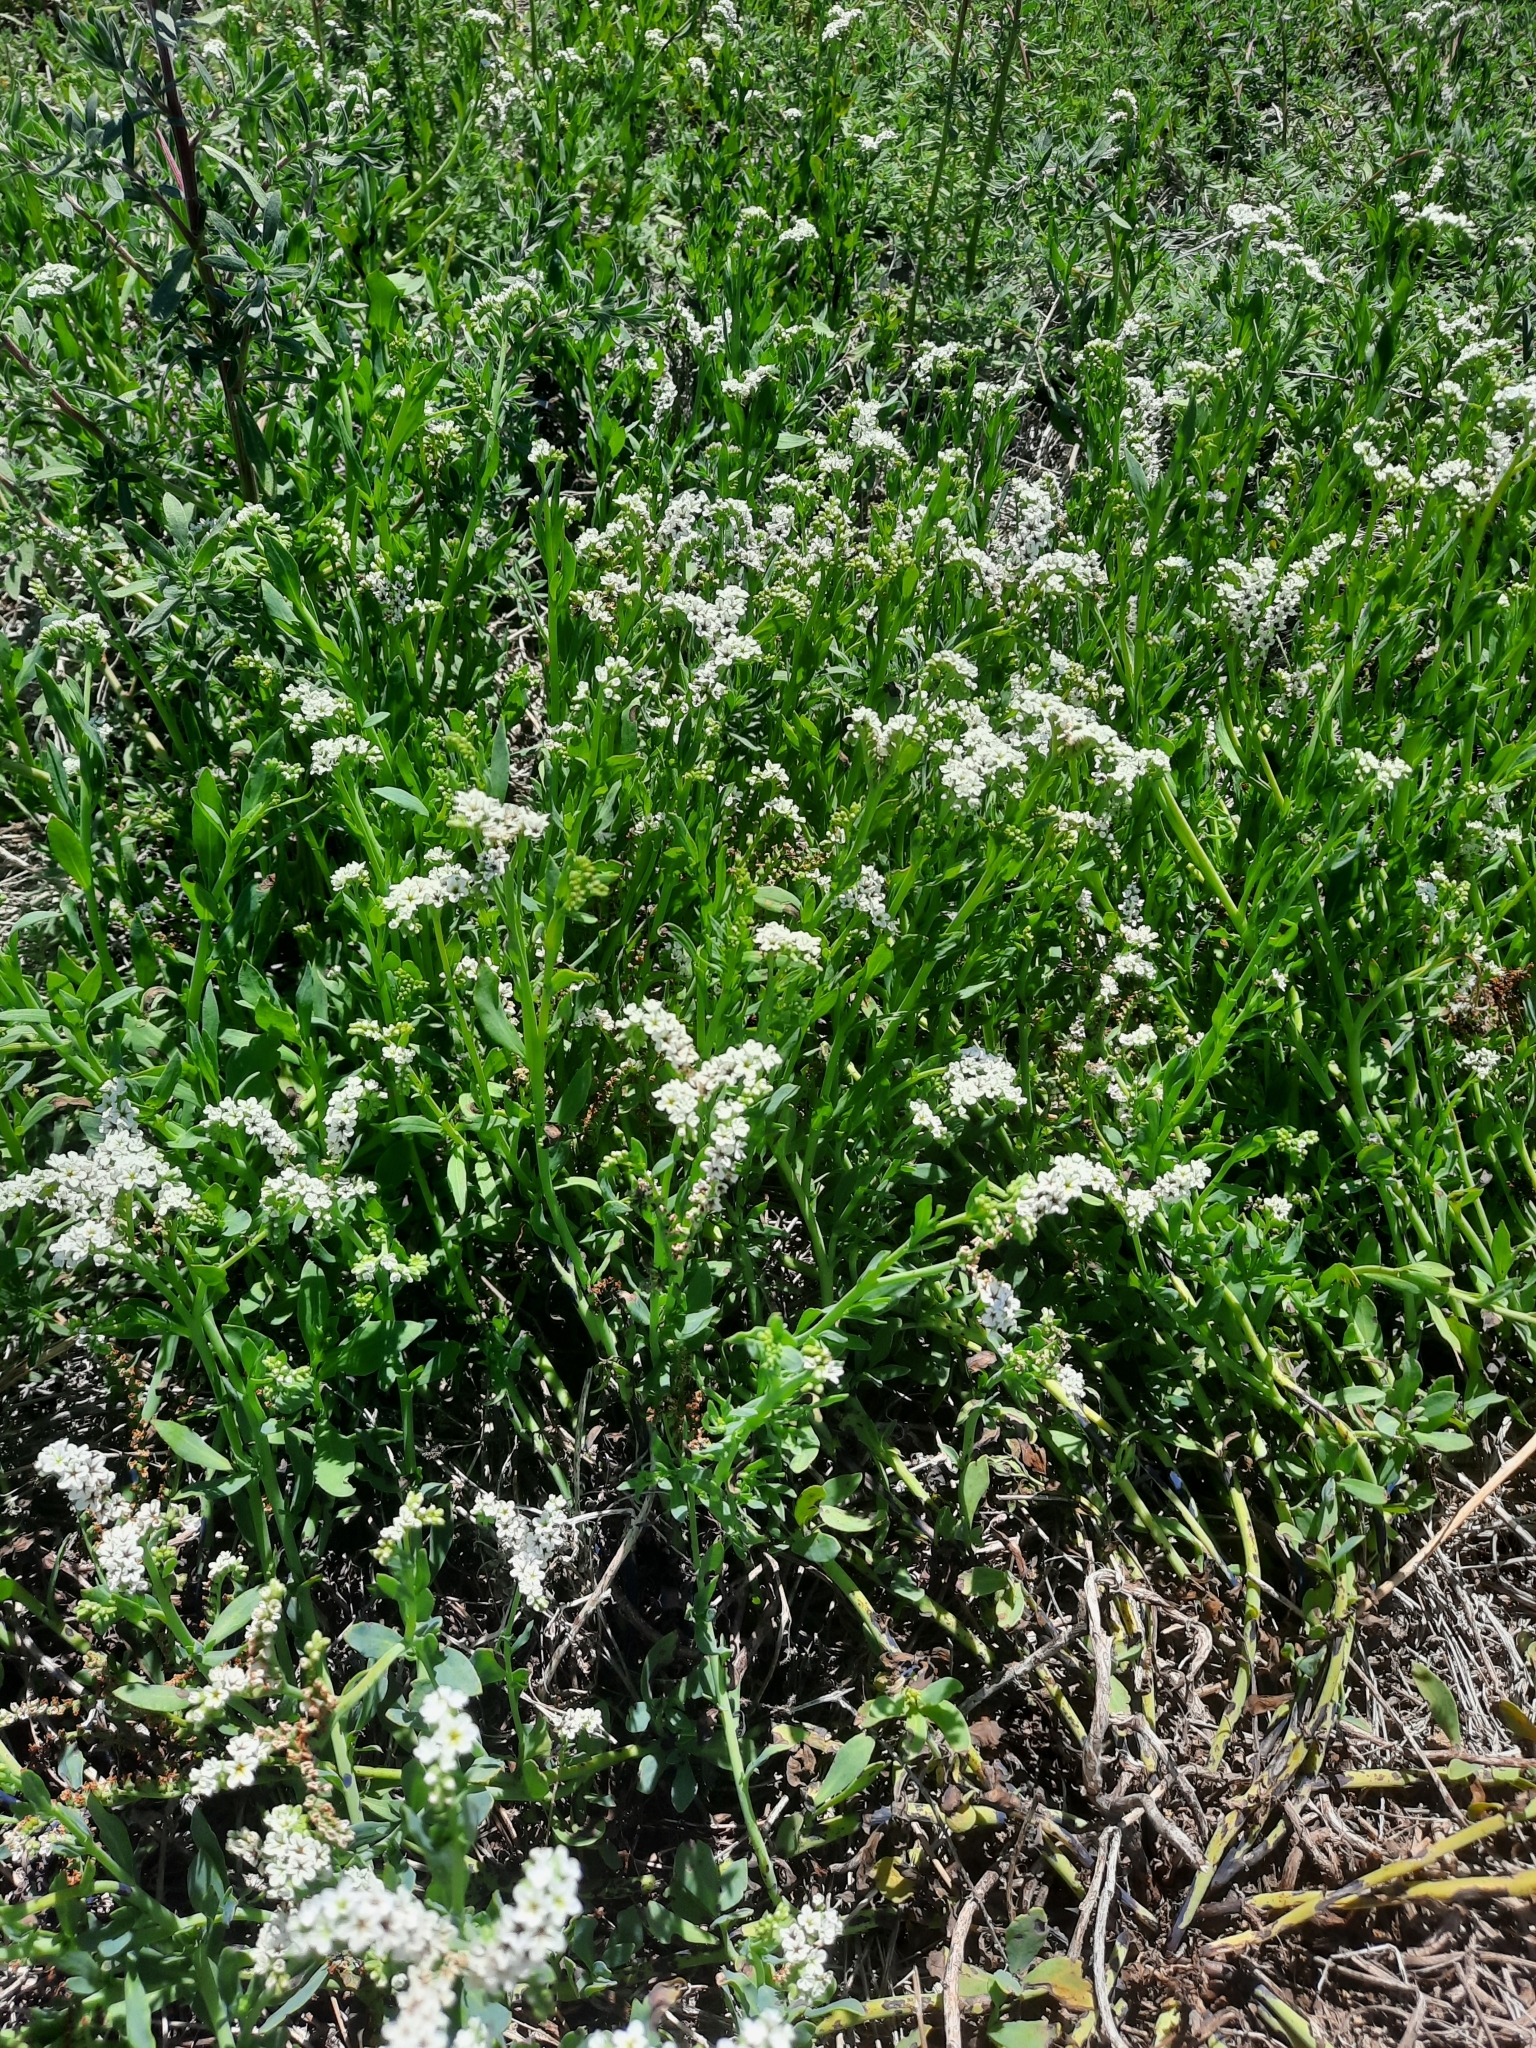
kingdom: Plantae
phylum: Tracheophyta
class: Magnoliopsida
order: Boraginales
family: Heliotropiaceae
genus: Heliotropium
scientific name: Heliotropium curassavicum
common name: Seaside heliotrope
